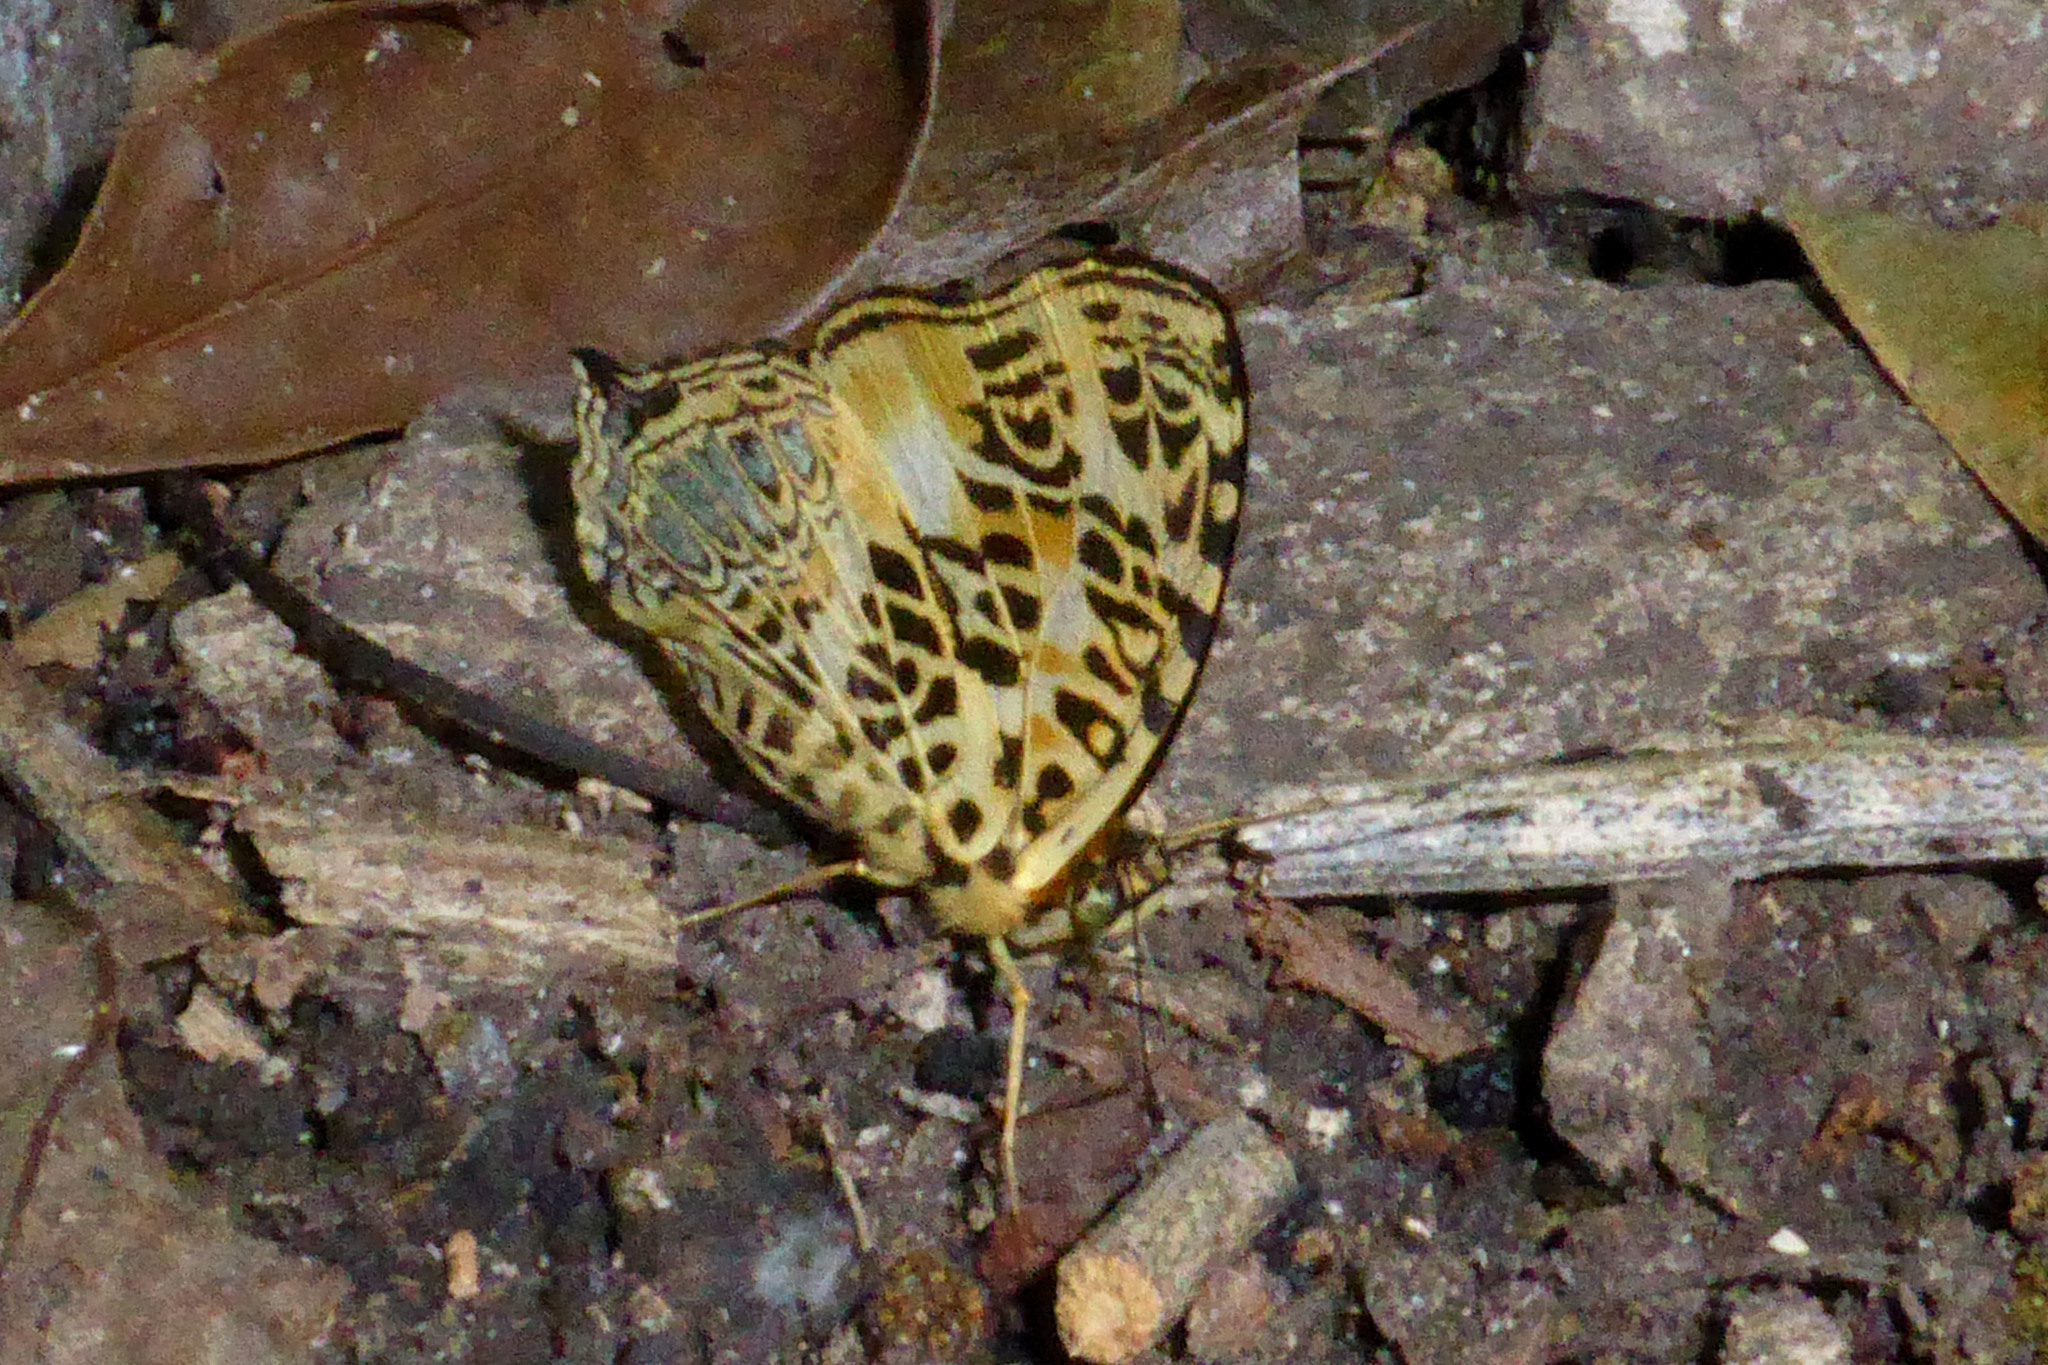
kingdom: Animalia
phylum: Arthropoda
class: Insecta
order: Lepidoptera
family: Nymphalidae
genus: Symbrenthia
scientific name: Symbrenthia hypselis
